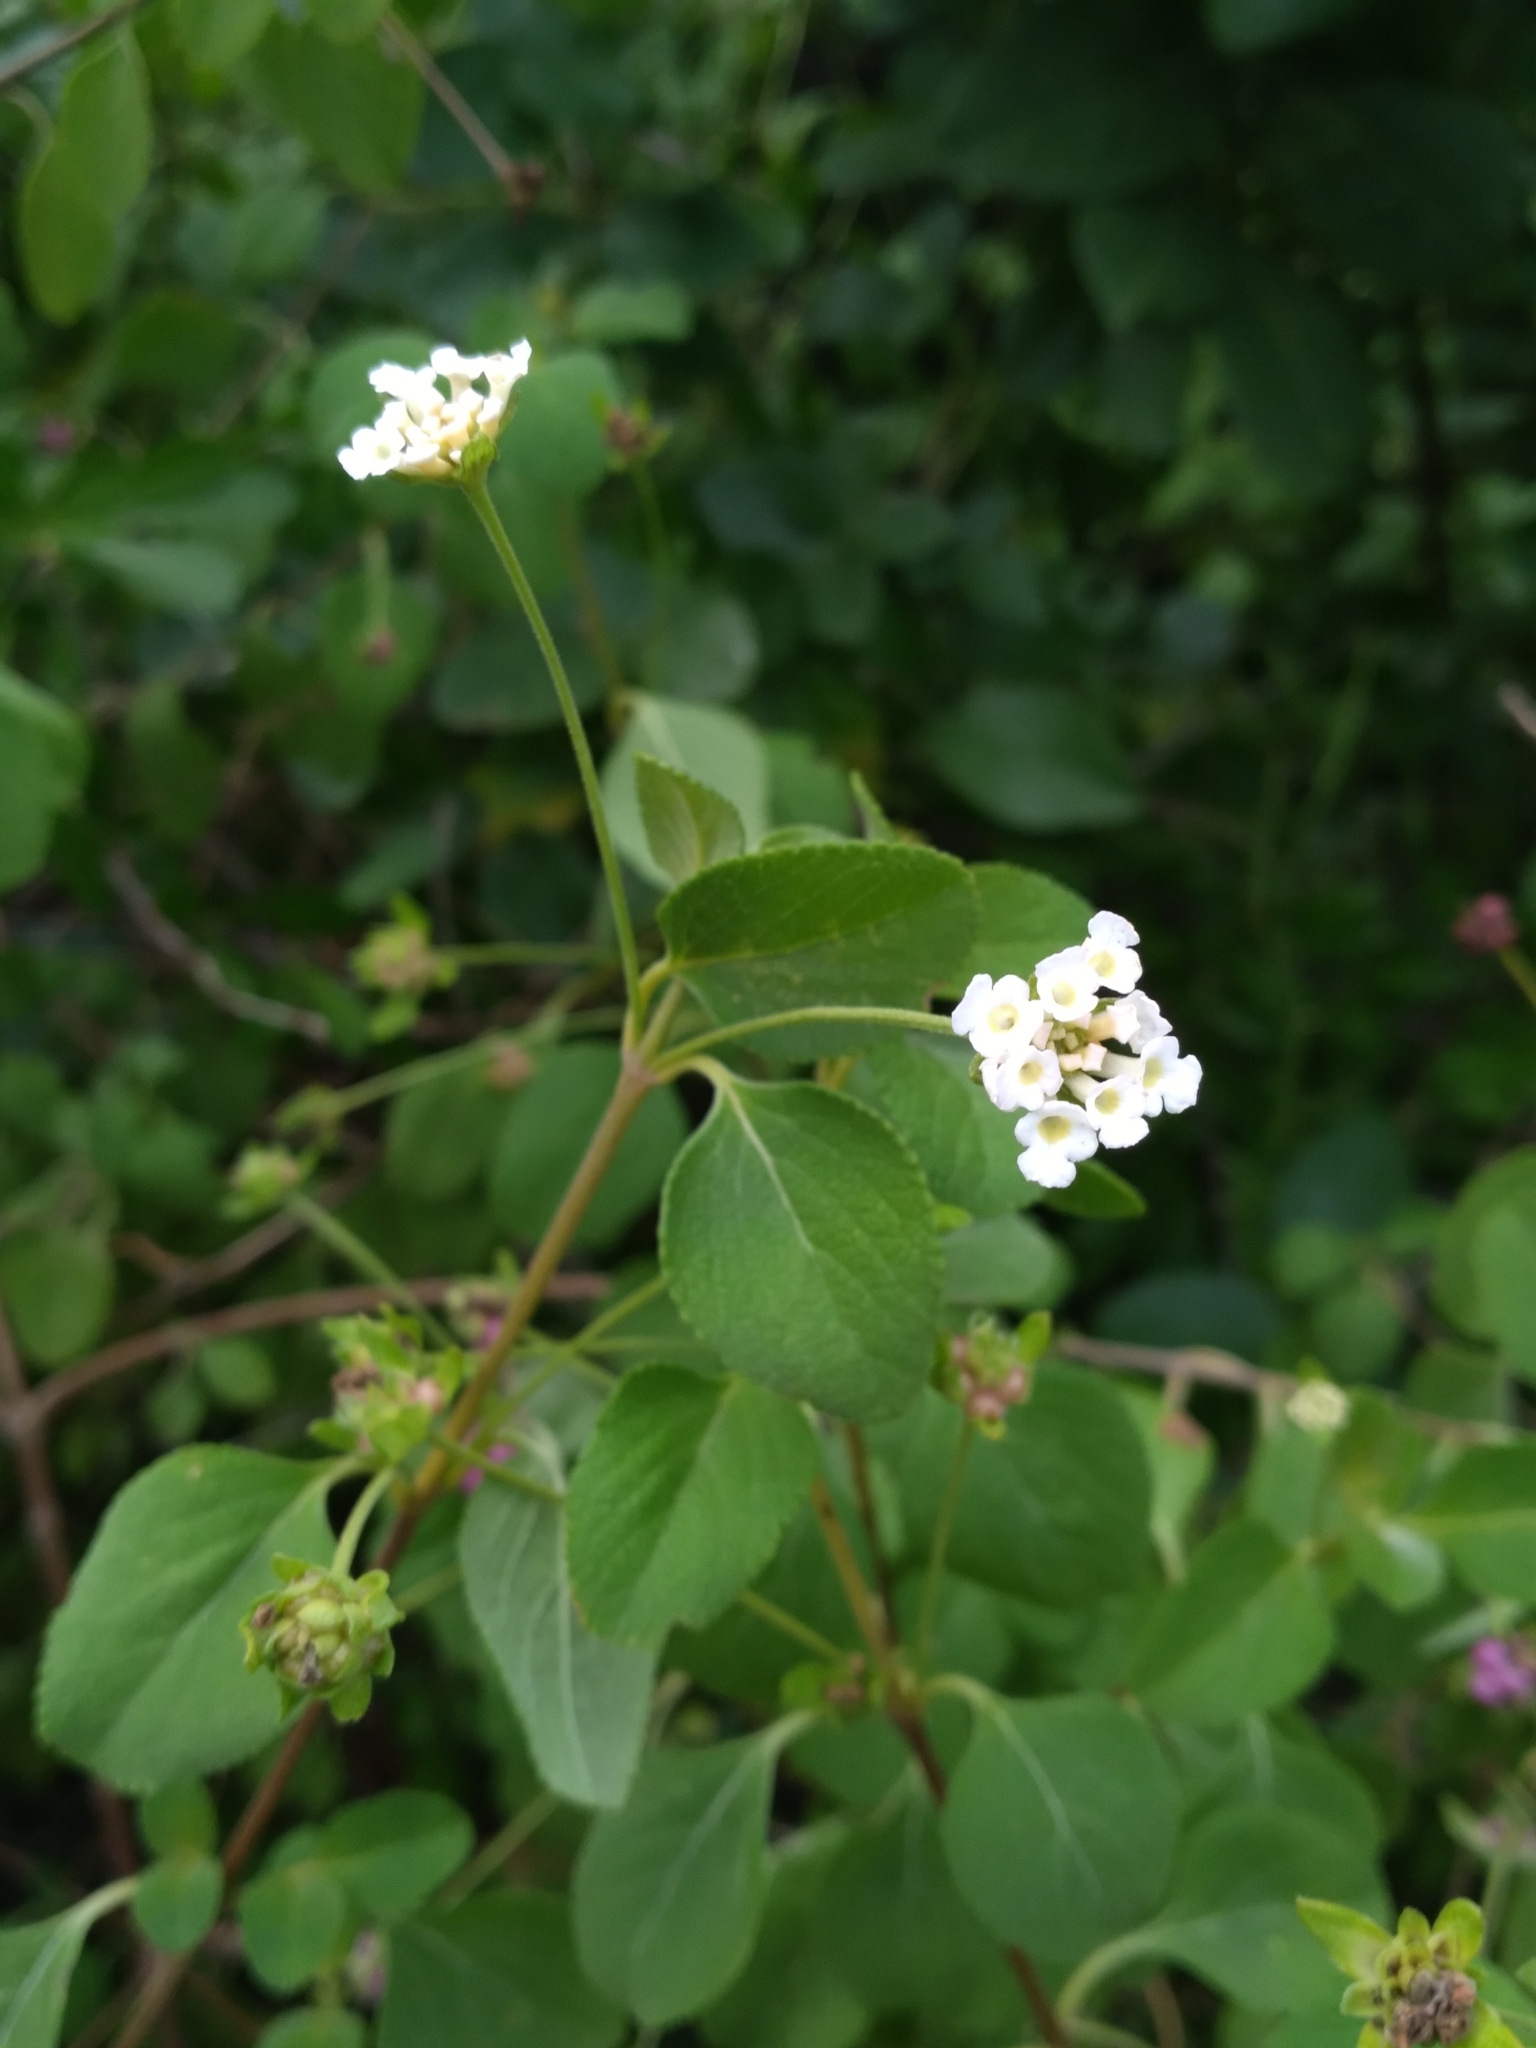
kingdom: Plantae
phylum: Tracheophyta
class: Magnoliopsida
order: Lamiales
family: Verbenaceae
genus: Lantana
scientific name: Lantana involucrata
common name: Black sage
